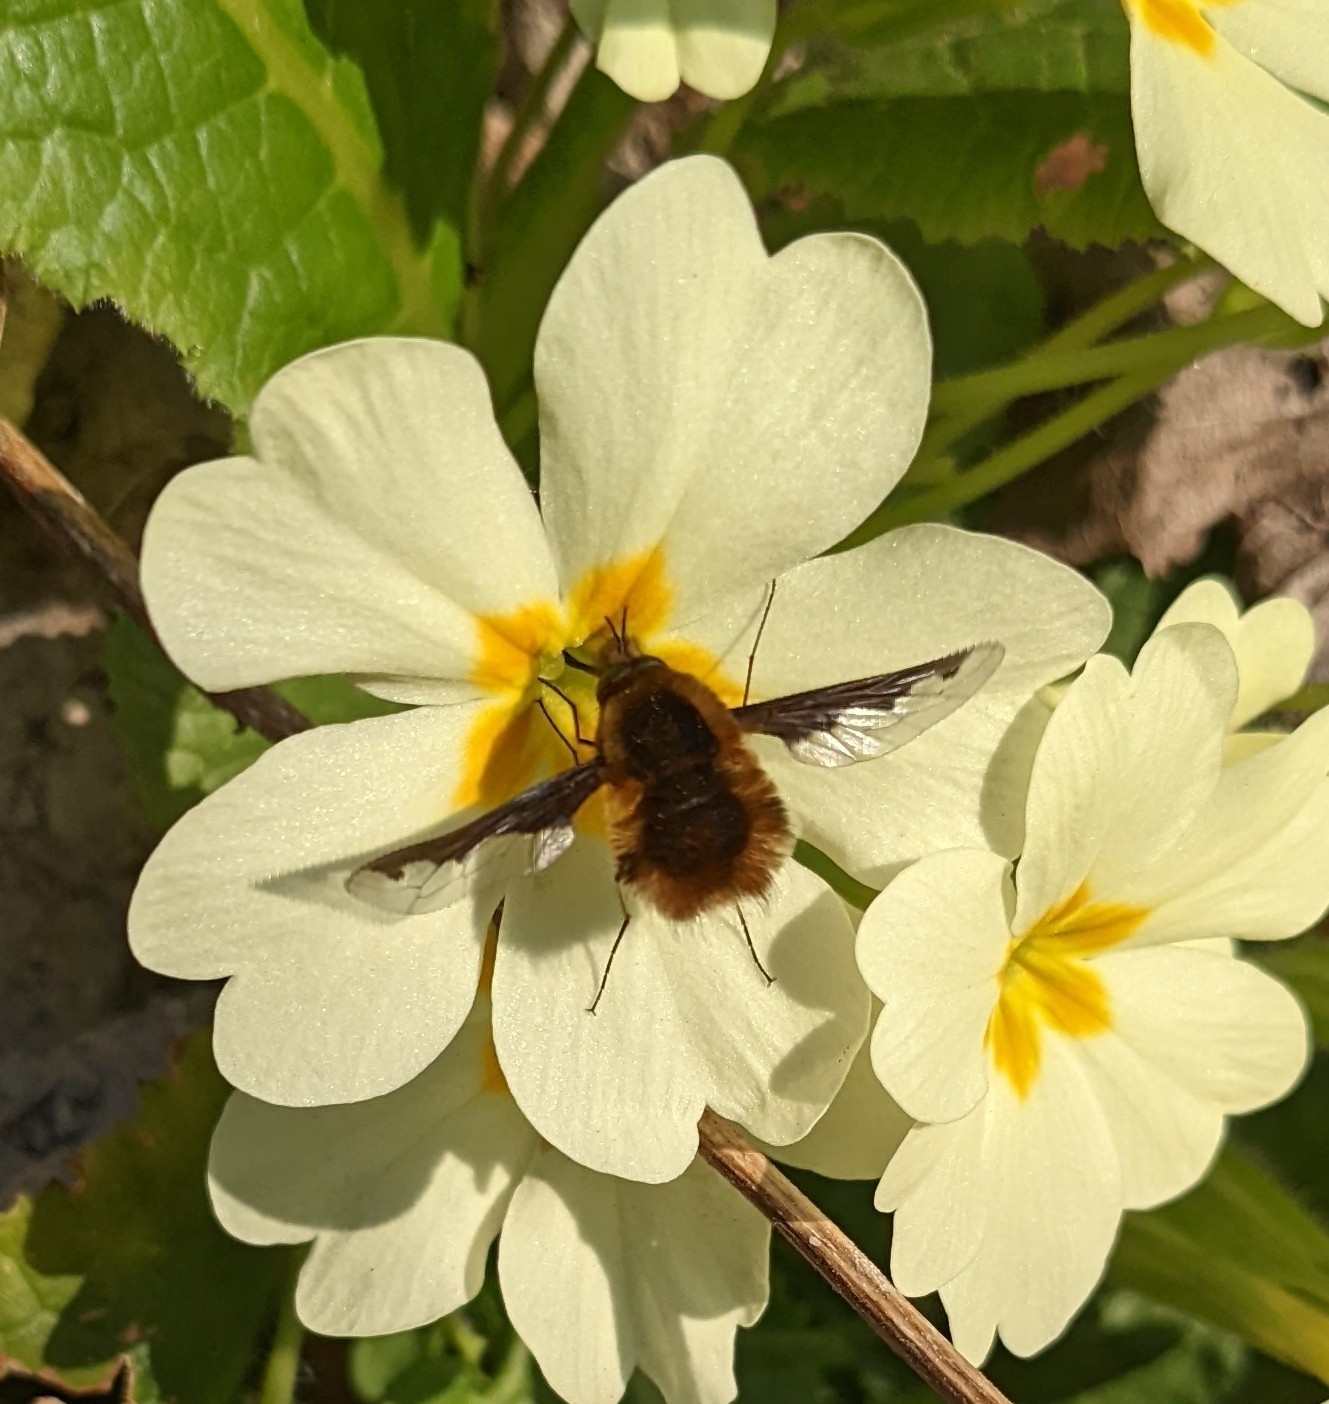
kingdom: Animalia
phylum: Arthropoda
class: Insecta
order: Diptera
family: Bombyliidae
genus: Bombylius
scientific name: Bombylius major
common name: Bee fly
